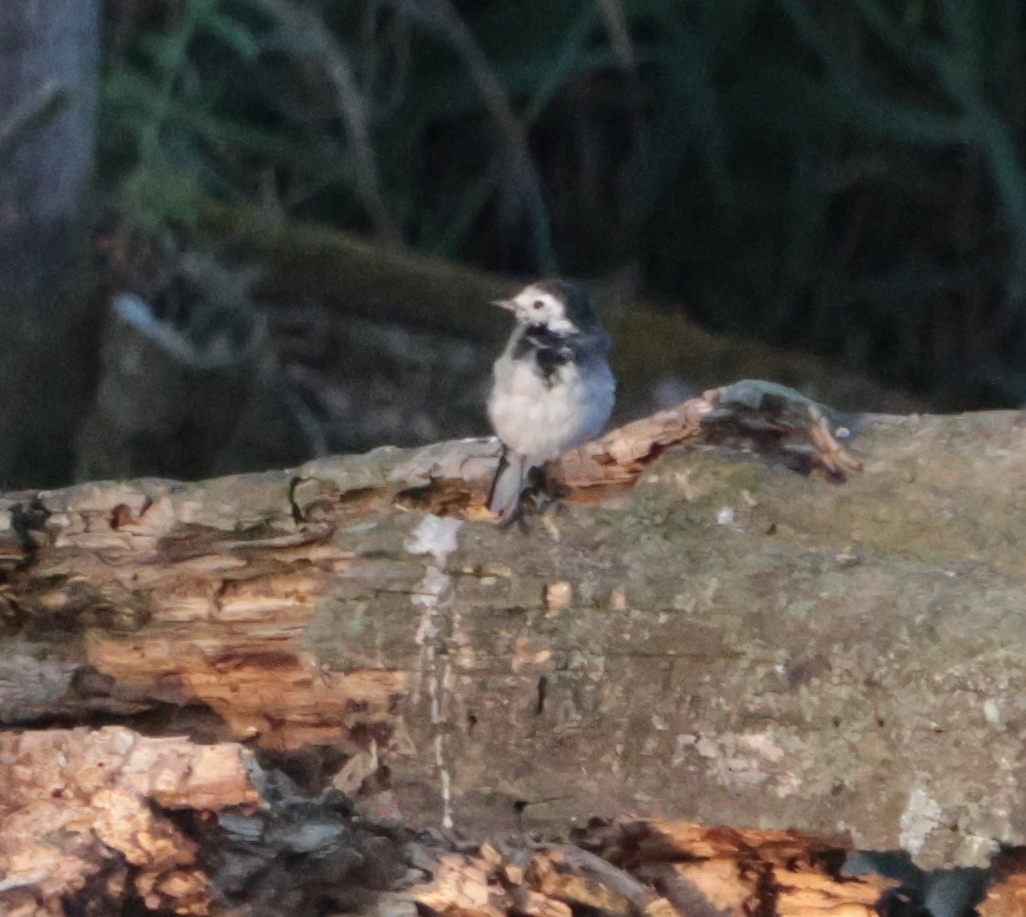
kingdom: Animalia
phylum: Chordata
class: Aves
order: Passeriformes
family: Motacillidae
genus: Motacilla
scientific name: Motacilla alba
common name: White wagtail
